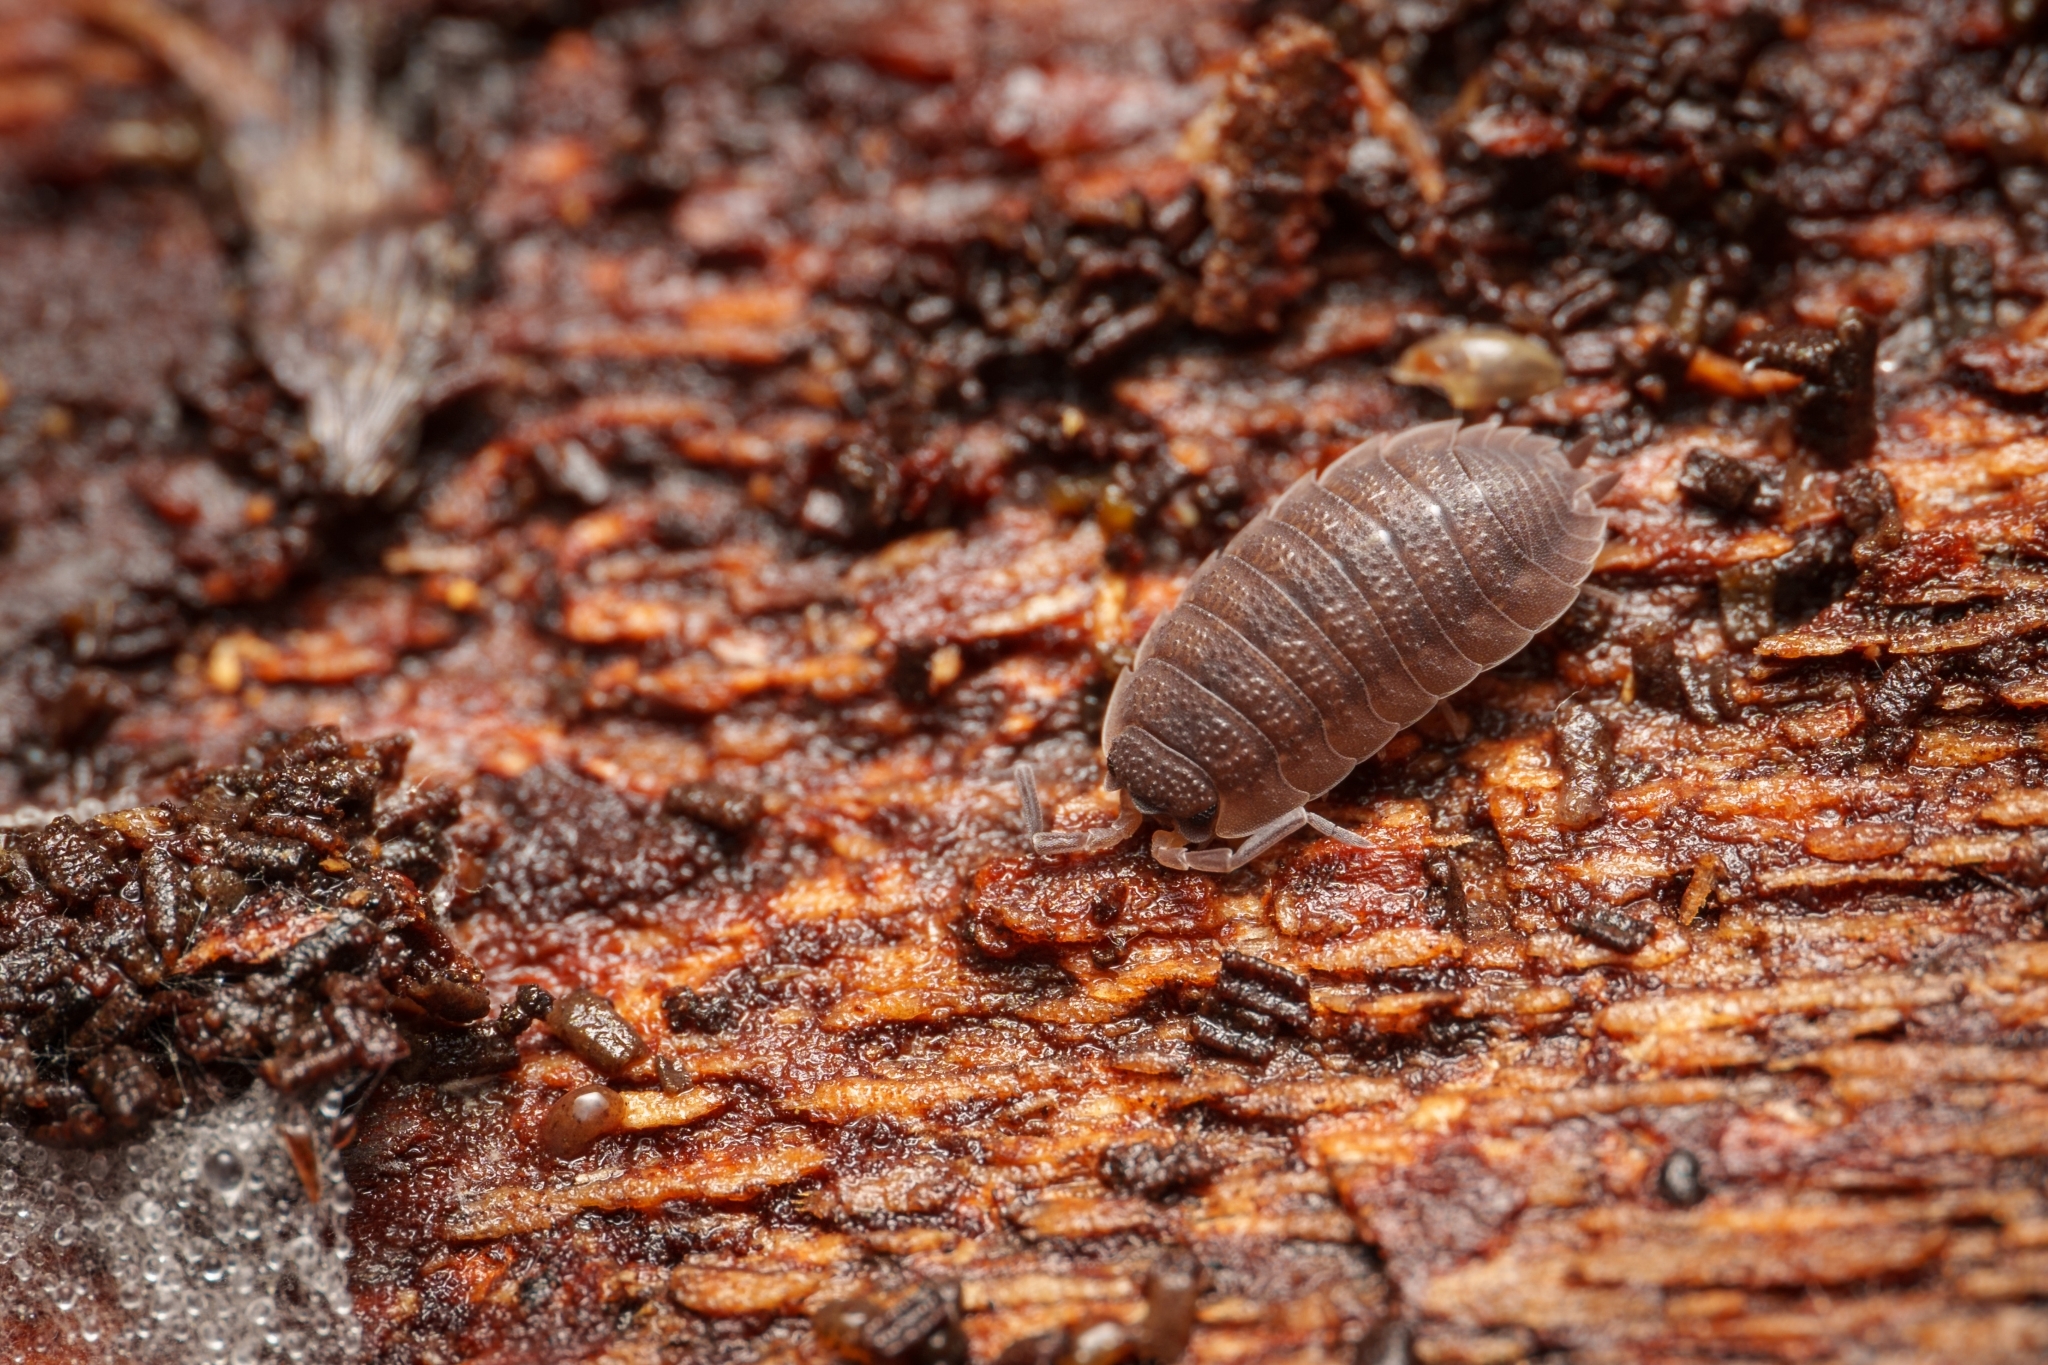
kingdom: Animalia
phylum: Arthropoda
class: Malacostraca
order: Isopoda
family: Porcellionidae
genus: Porcellio
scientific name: Porcellio scaber
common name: Common rough woodlouse
